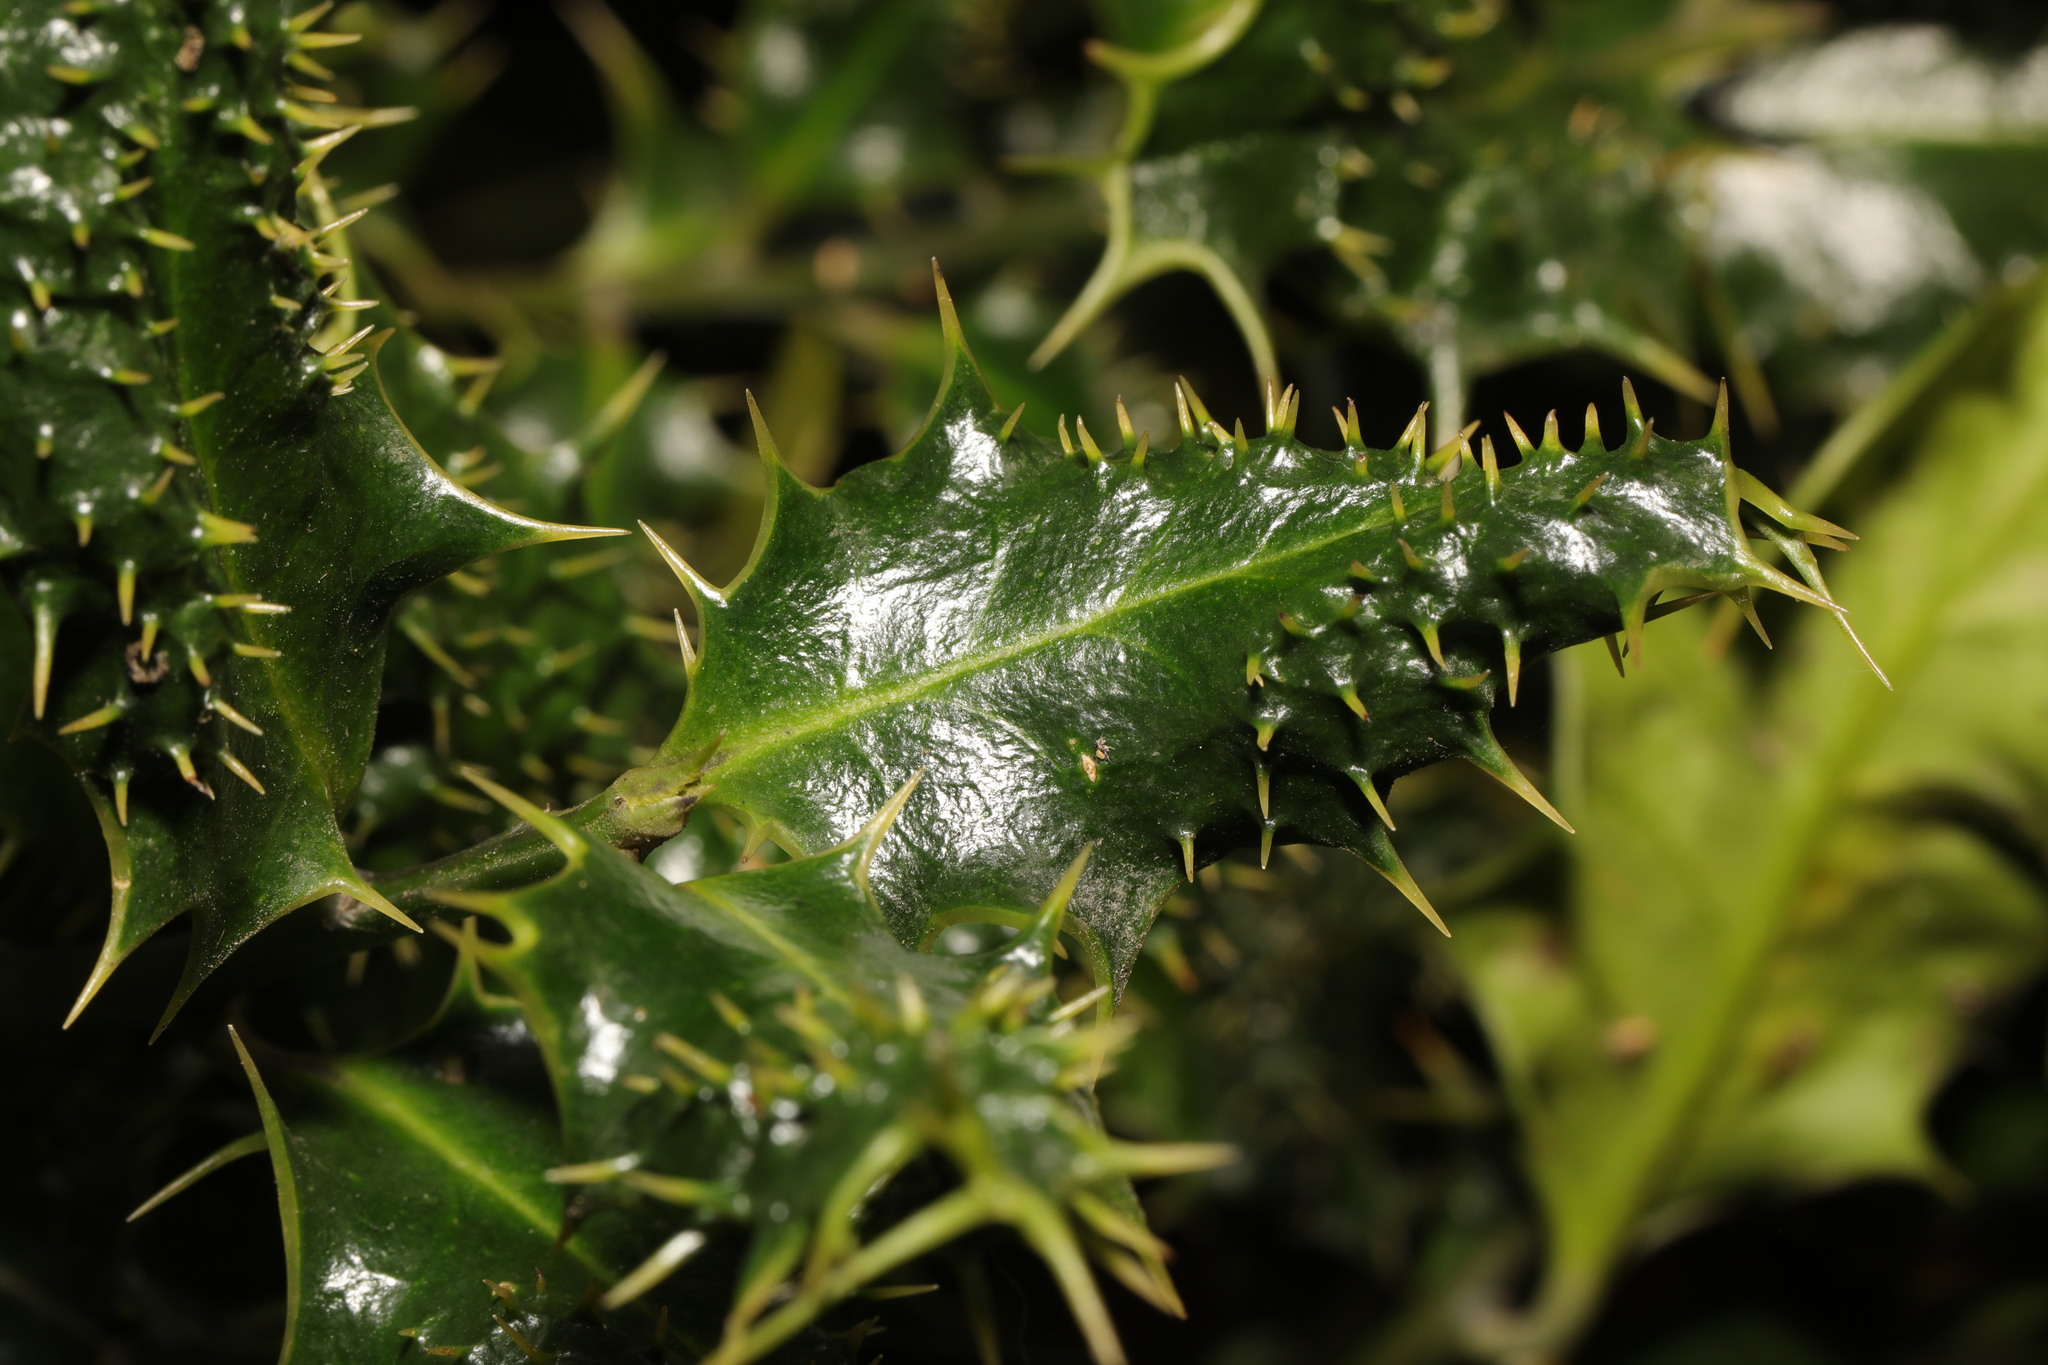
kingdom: Plantae
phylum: Tracheophyta
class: Magnoliopsida
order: Aquifoliales
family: Aquifoliaceae
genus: Ilex
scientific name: Ilex aquifolium
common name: English holly
